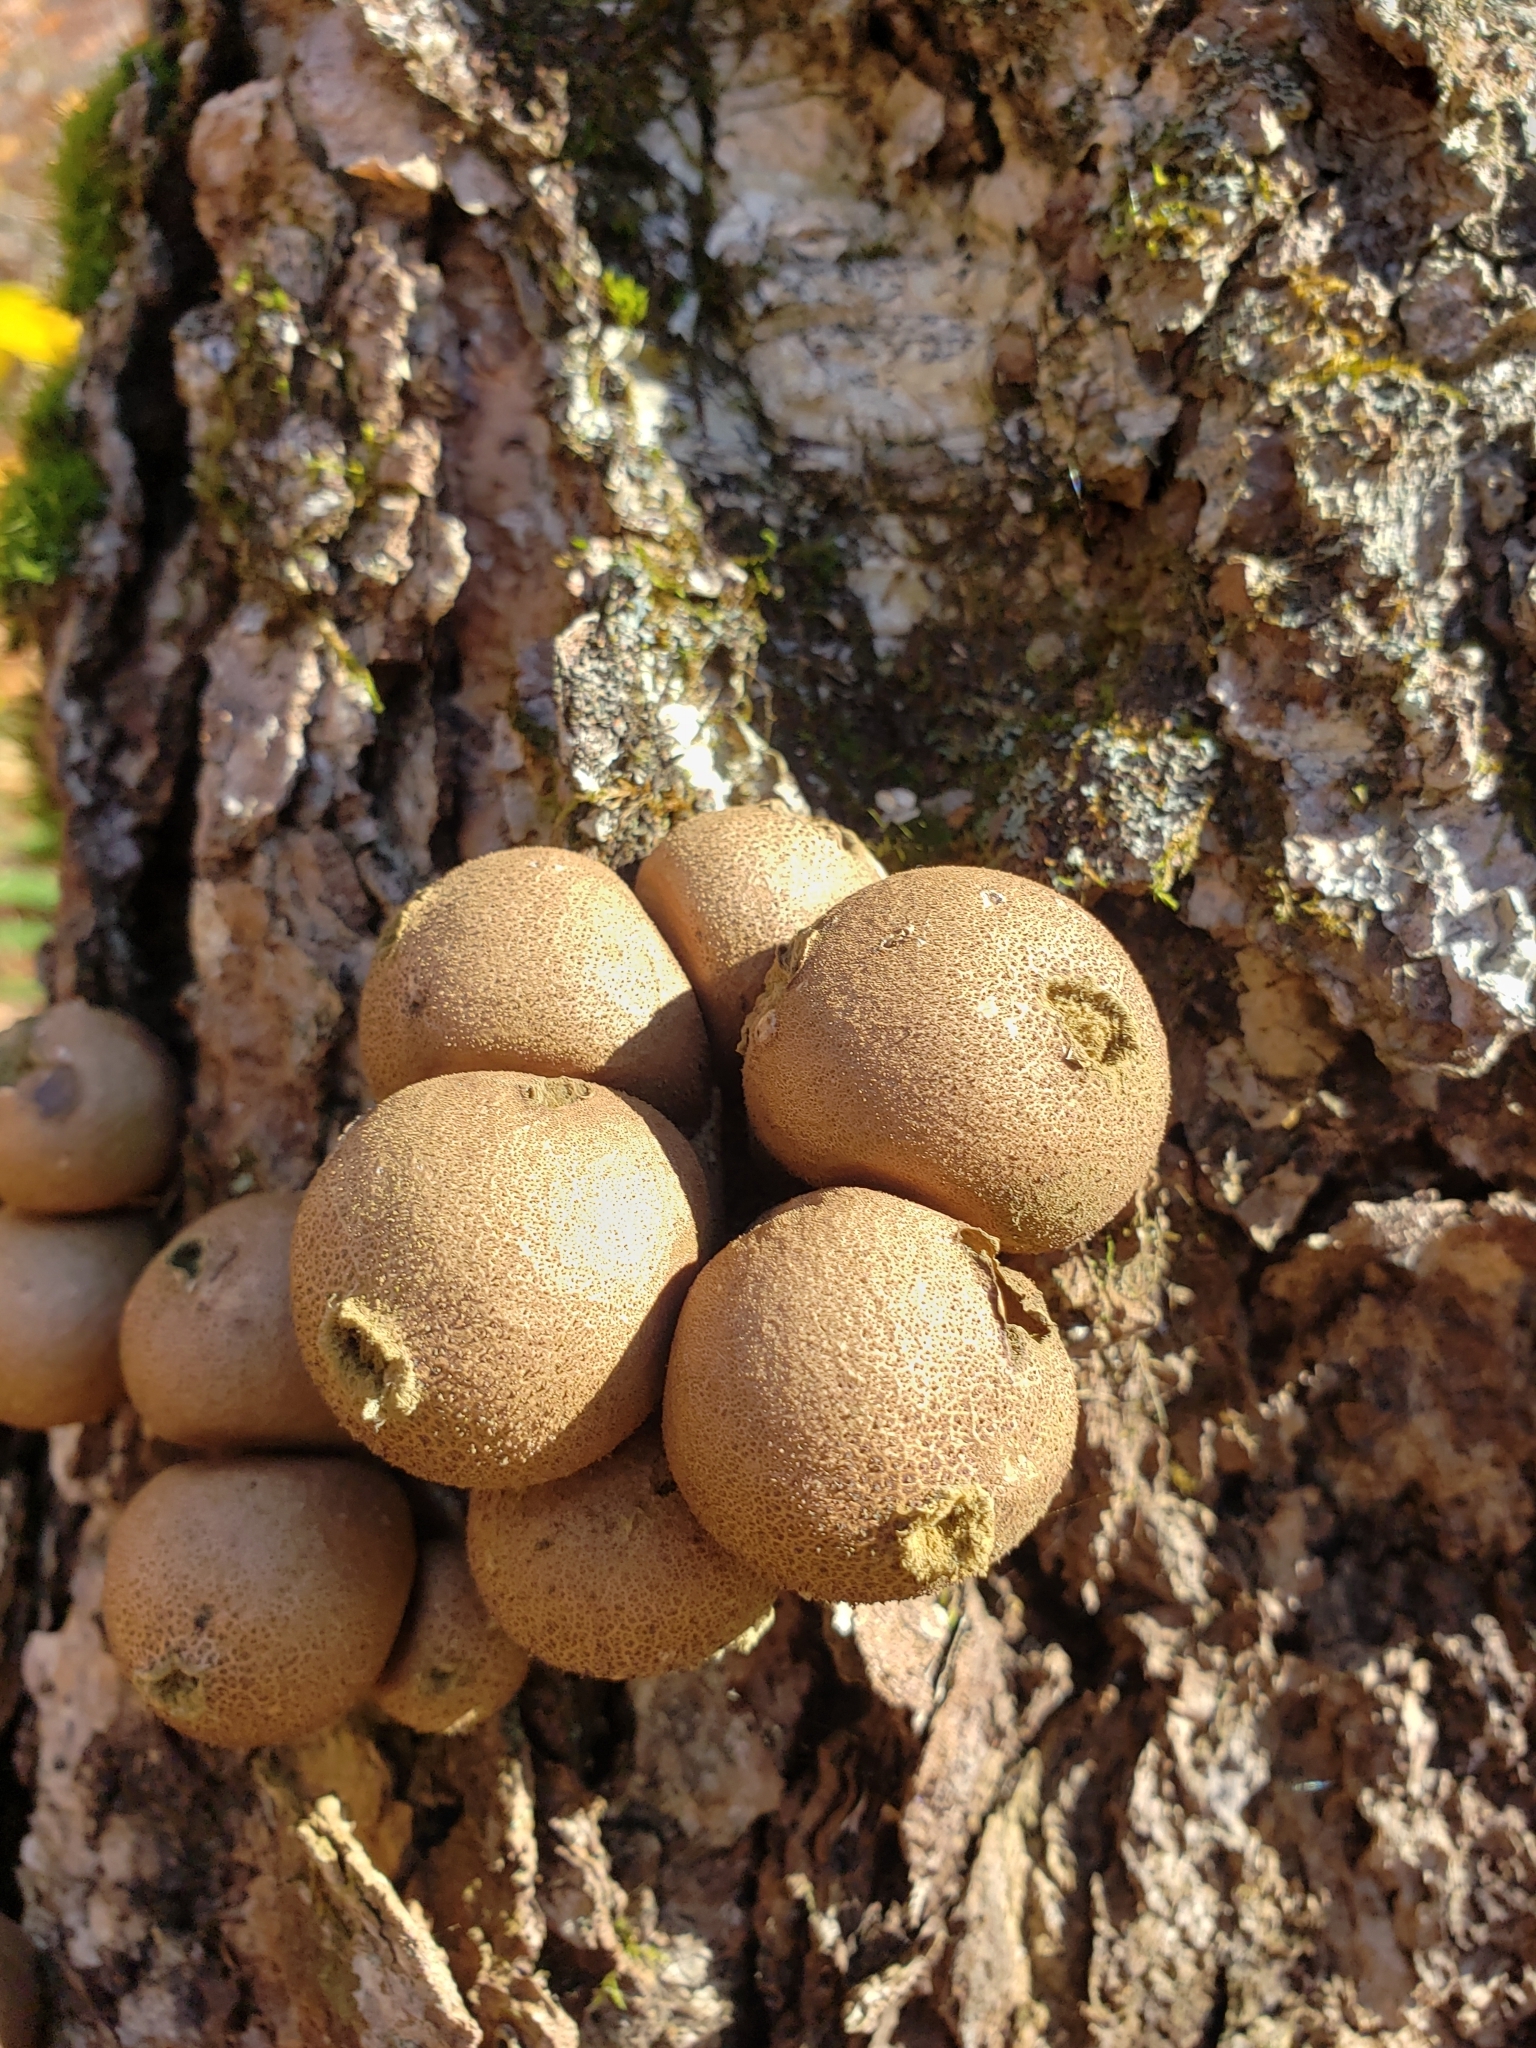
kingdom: Fungi
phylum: Basidiomycota
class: Agaricomycetes
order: Agaricales
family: Lycoperdaceae
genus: Apioperdon
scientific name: Apioperdon pyriforme
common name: Pear-shaped puffball
